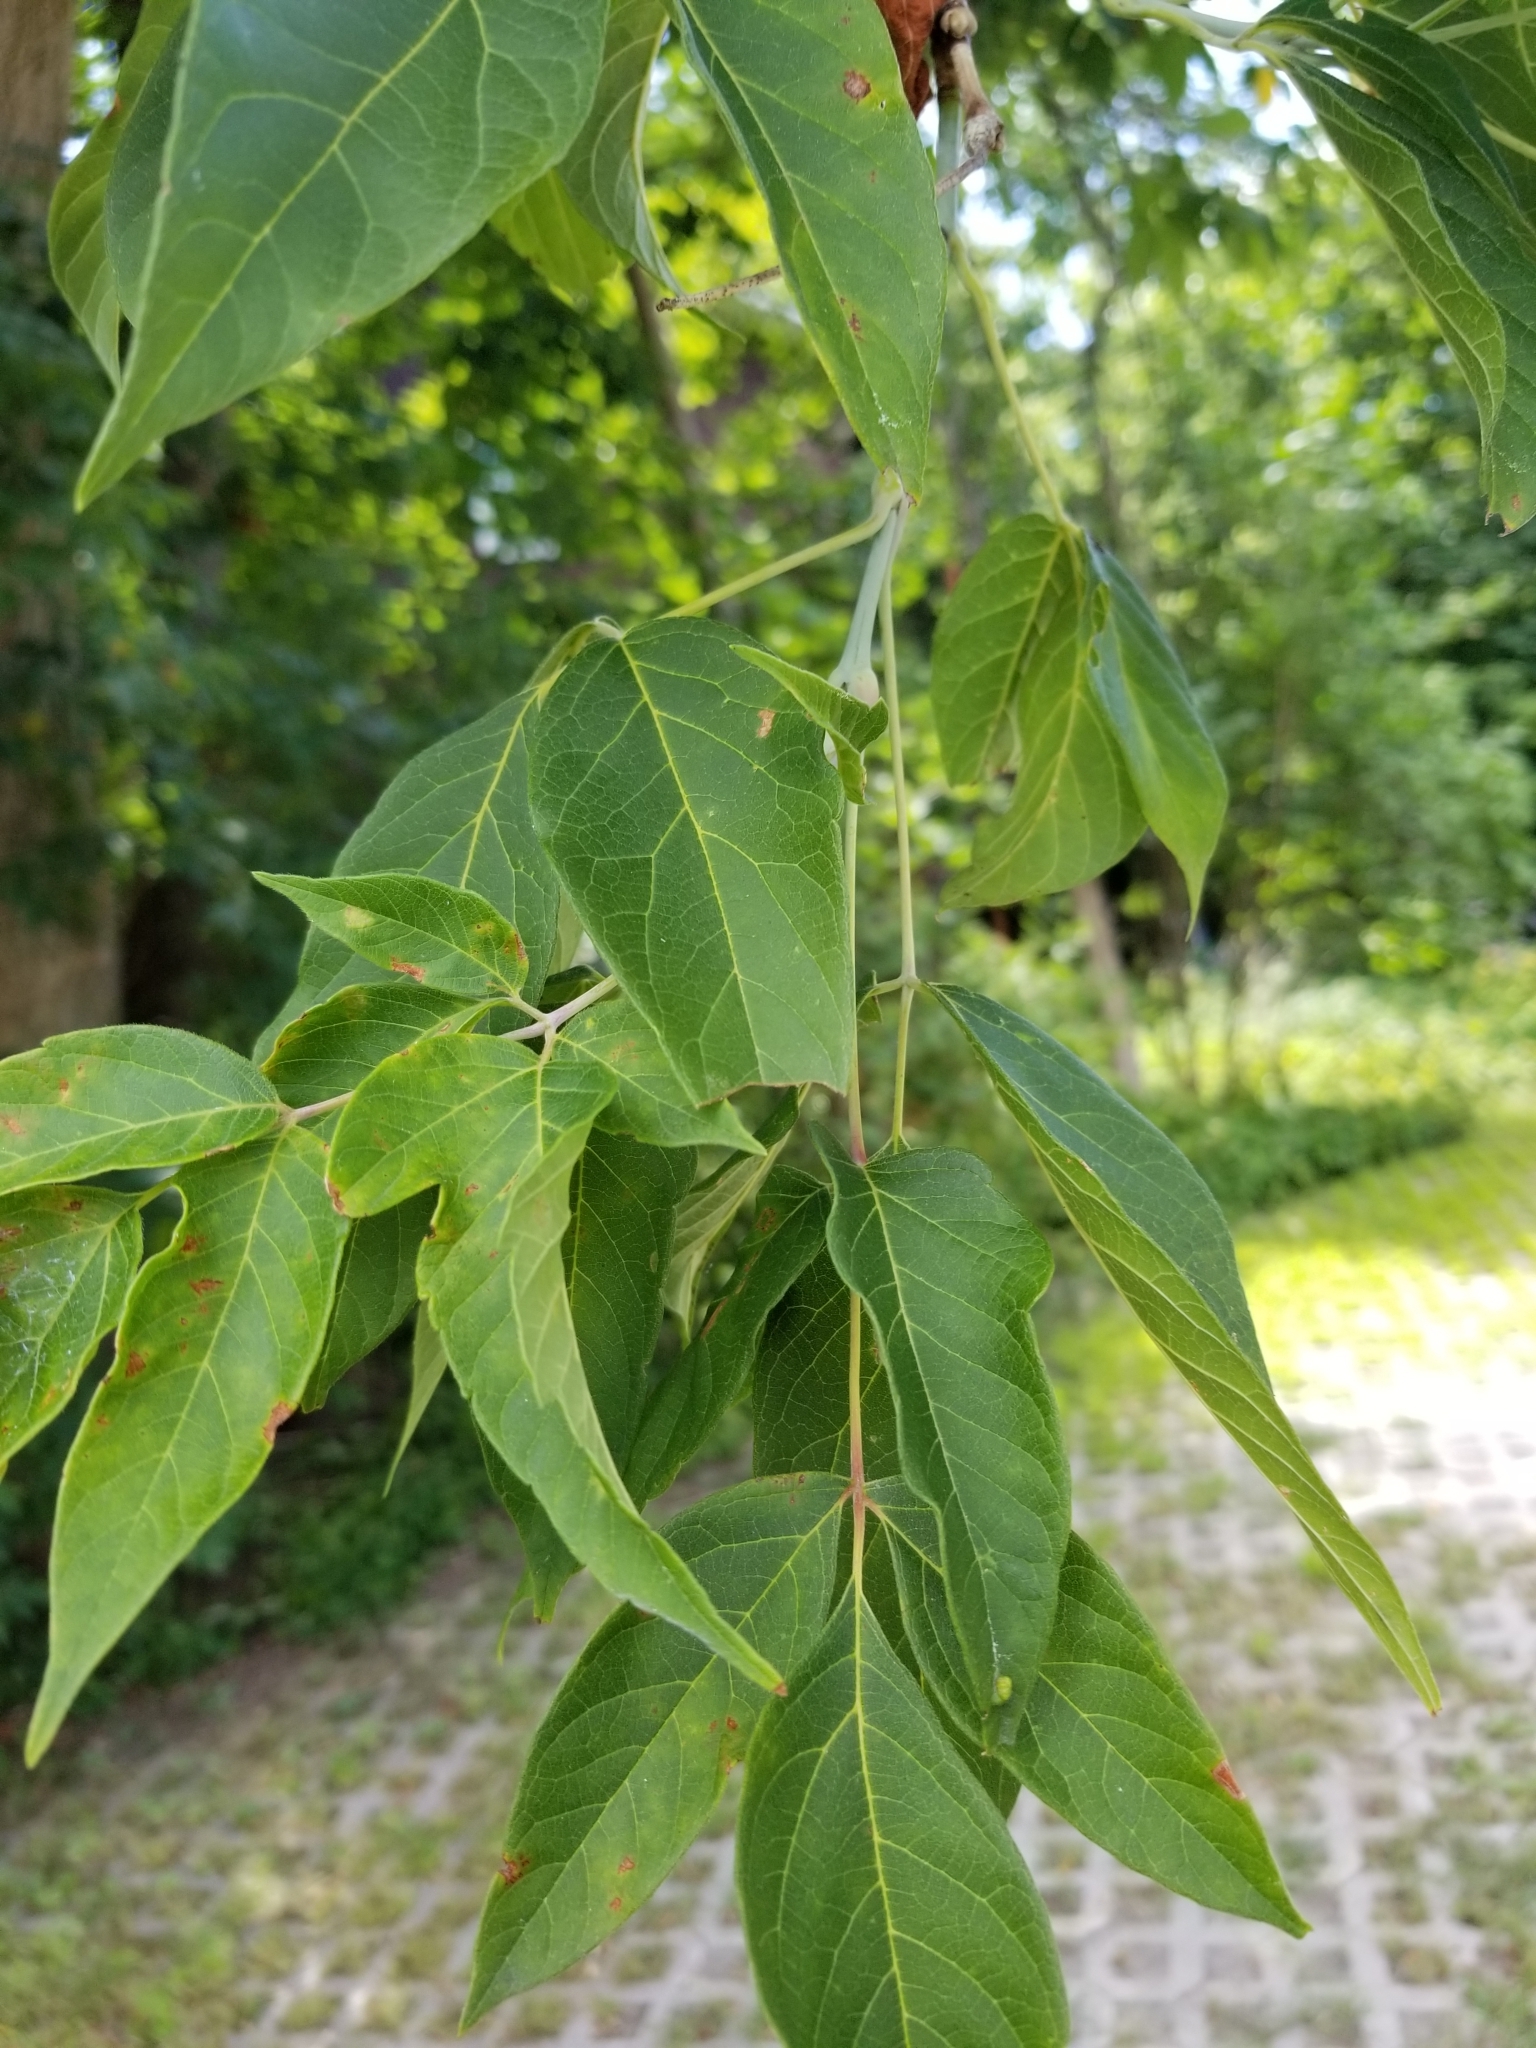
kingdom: Plantae
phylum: Tracheophyta
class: Magnoliopsida
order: Sapindales
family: Sapindaceae
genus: Acer
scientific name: Acer negundo
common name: Ashleaf maple
